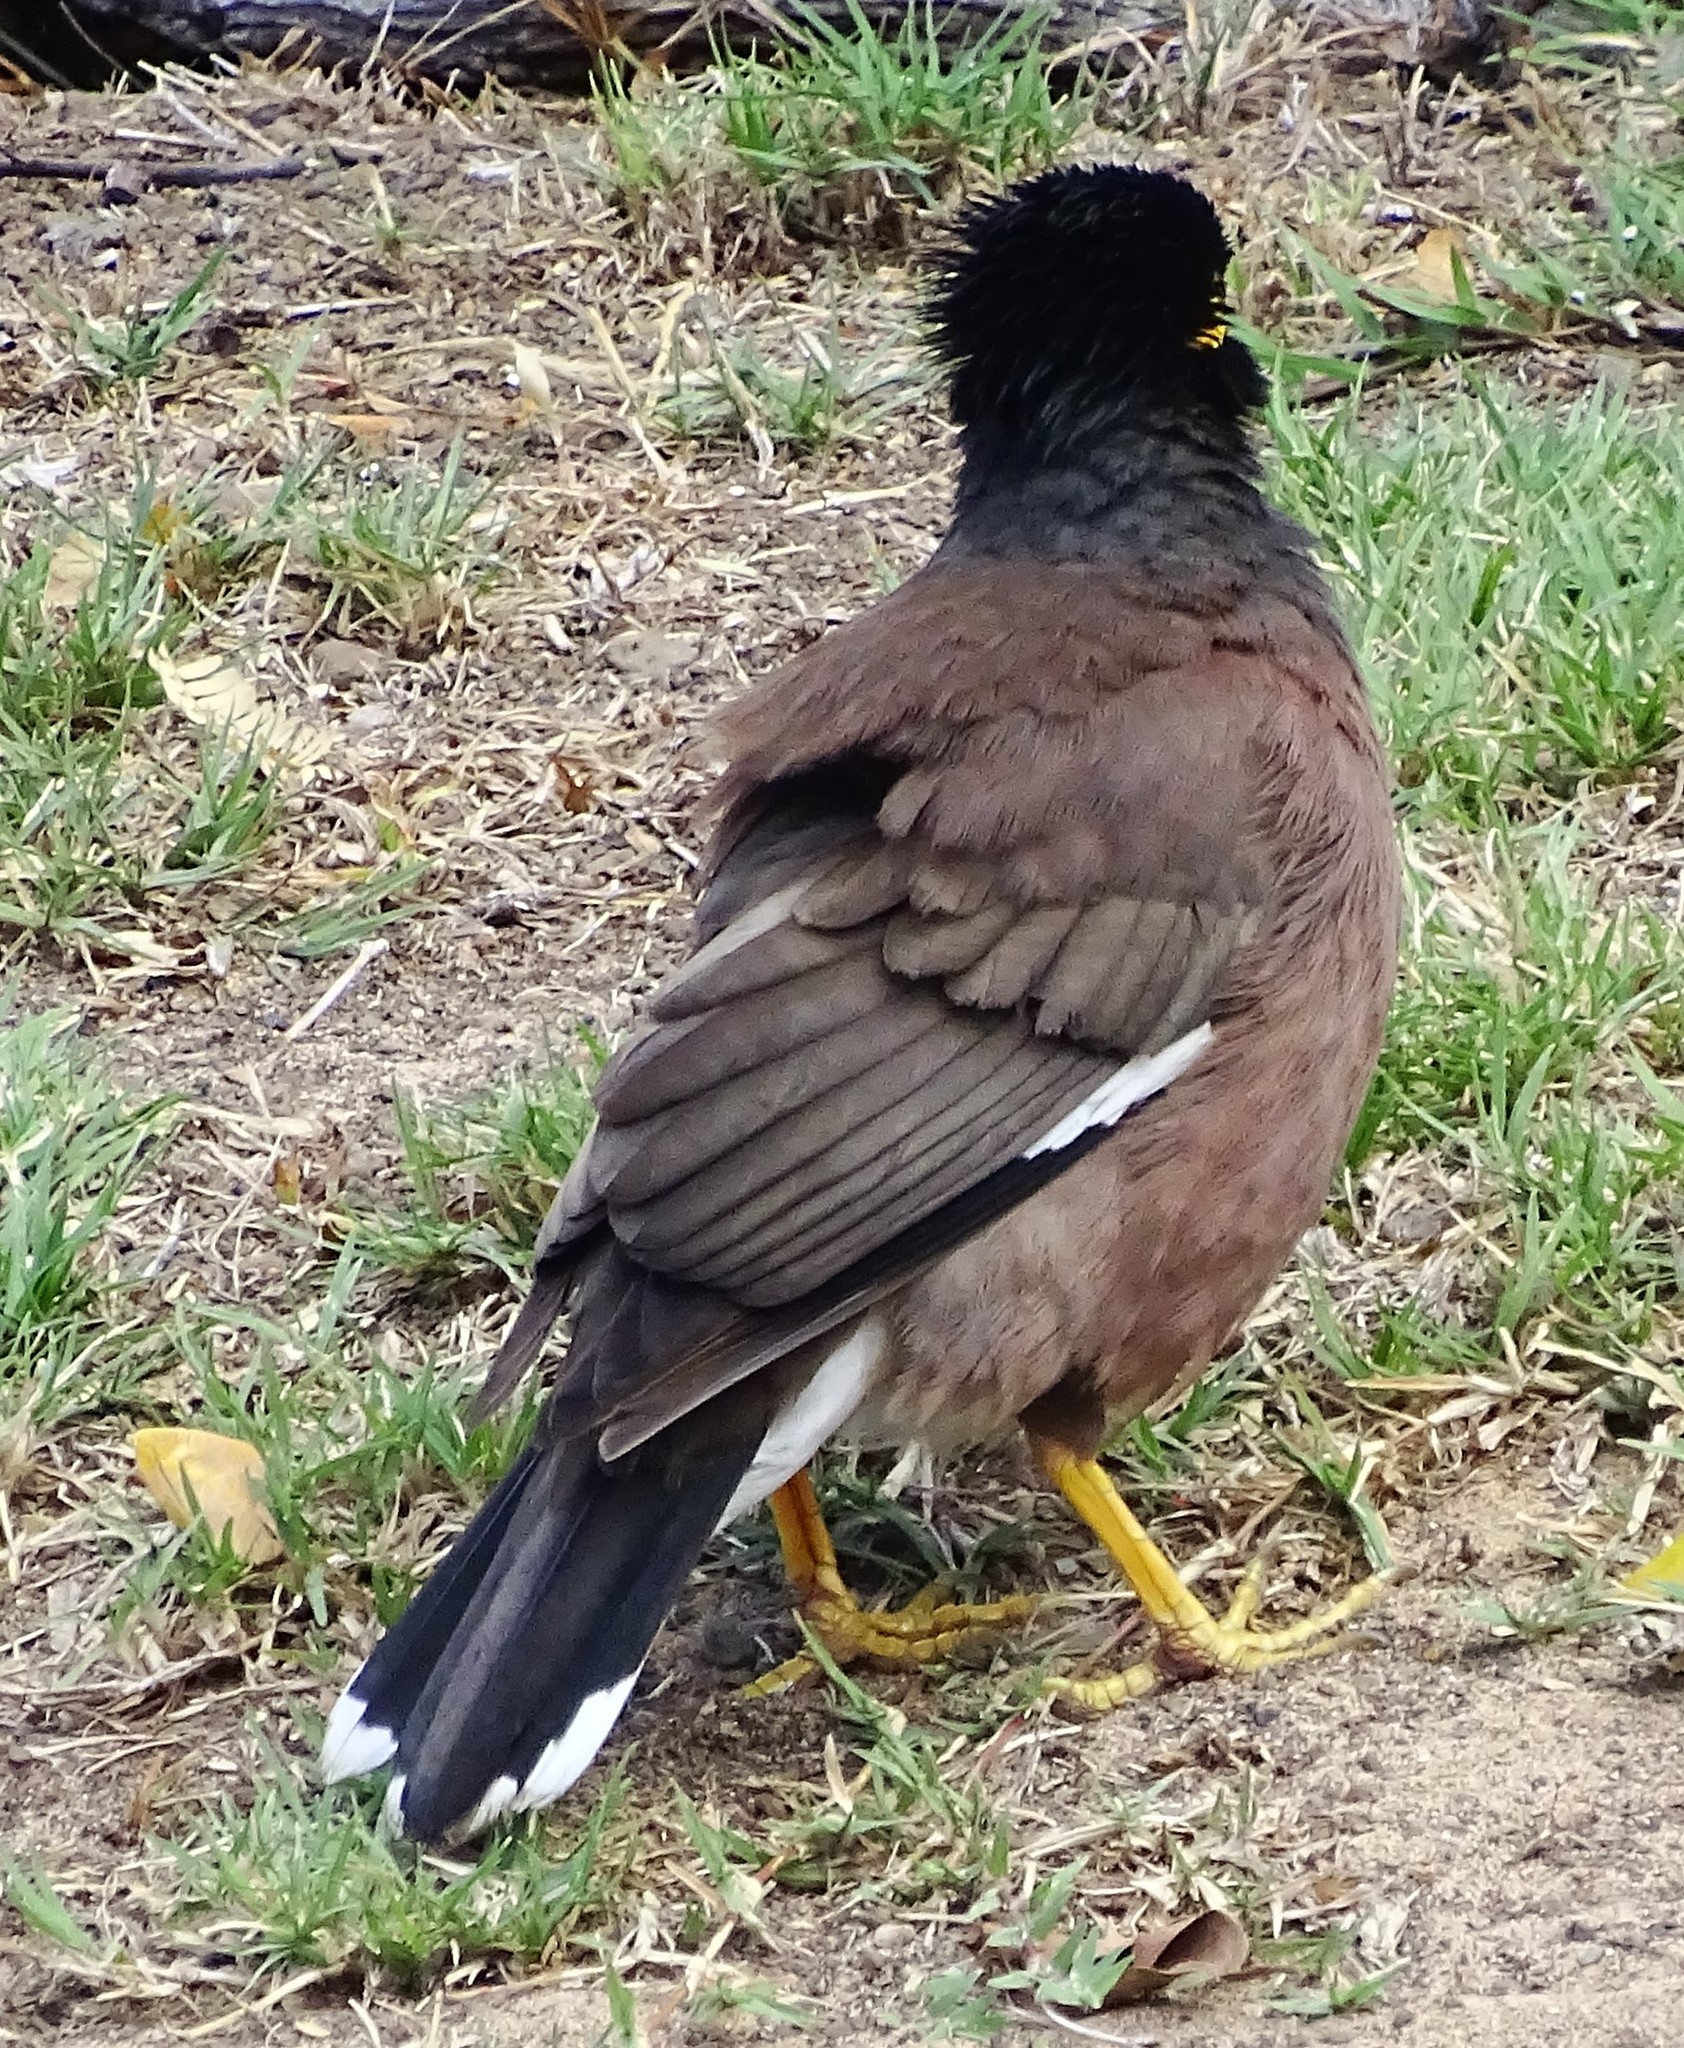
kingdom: Animalia
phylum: Chordata
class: Aves
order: Passeriformes
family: Sturnidae
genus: Acridotheres
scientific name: Acridotheres tristis
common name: Common myna
